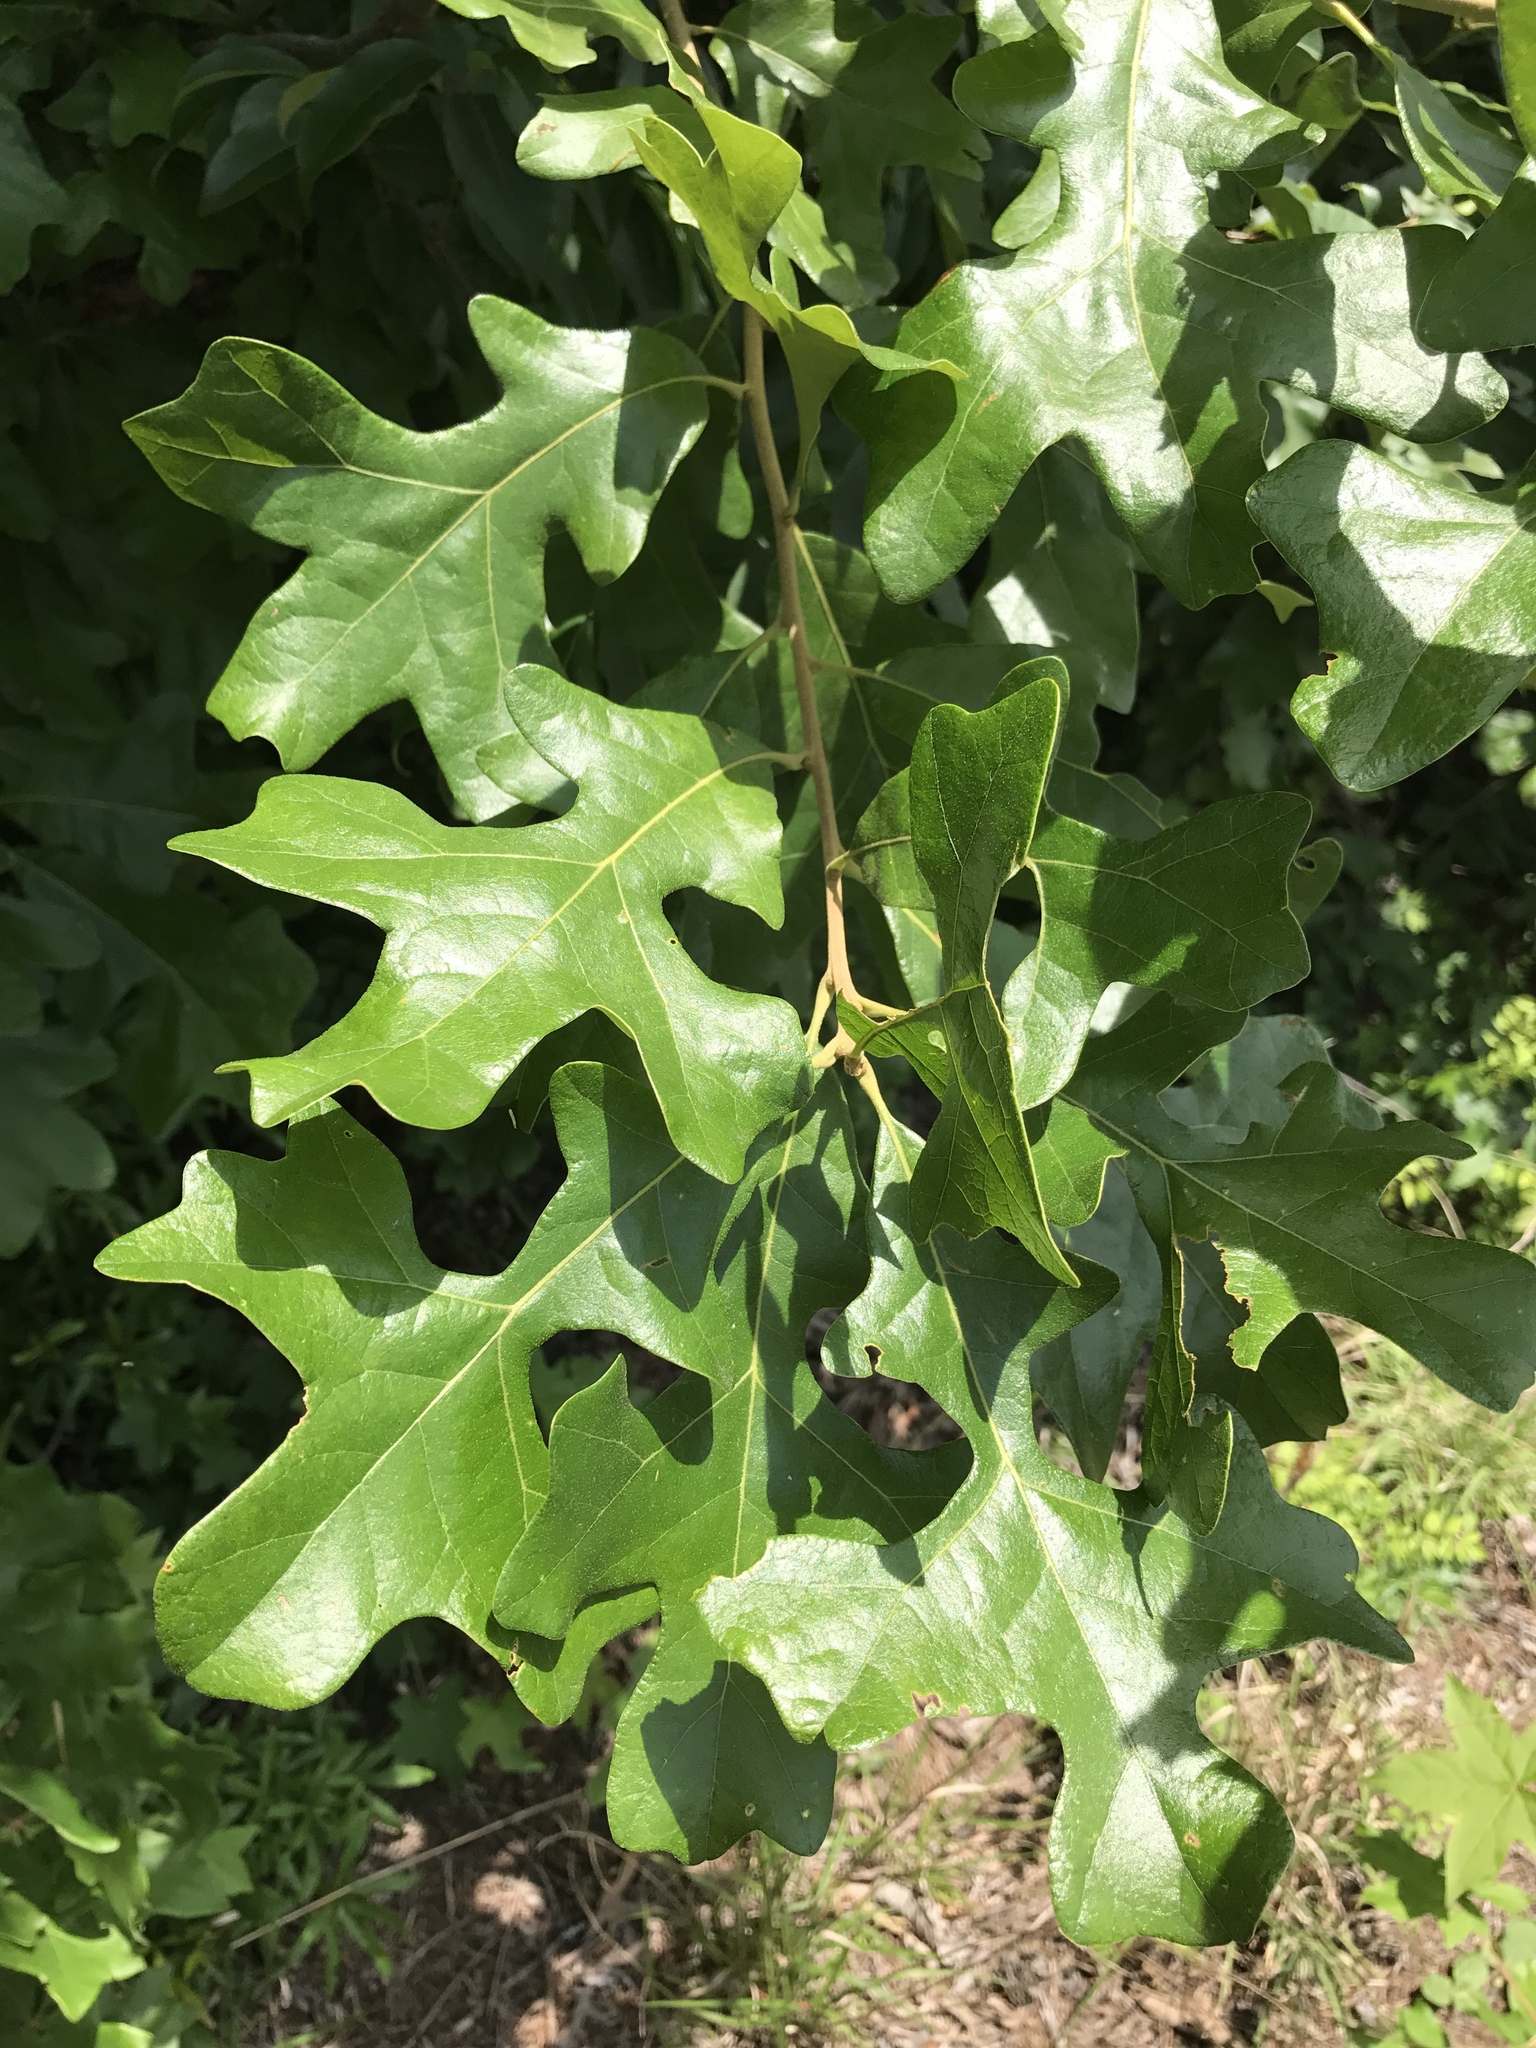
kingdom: Plantae
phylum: Tracheophyta
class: Magnoliopsida
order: Fagales
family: Fagaceae
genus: Quercus
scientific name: Quercus stellata
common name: Post oak
